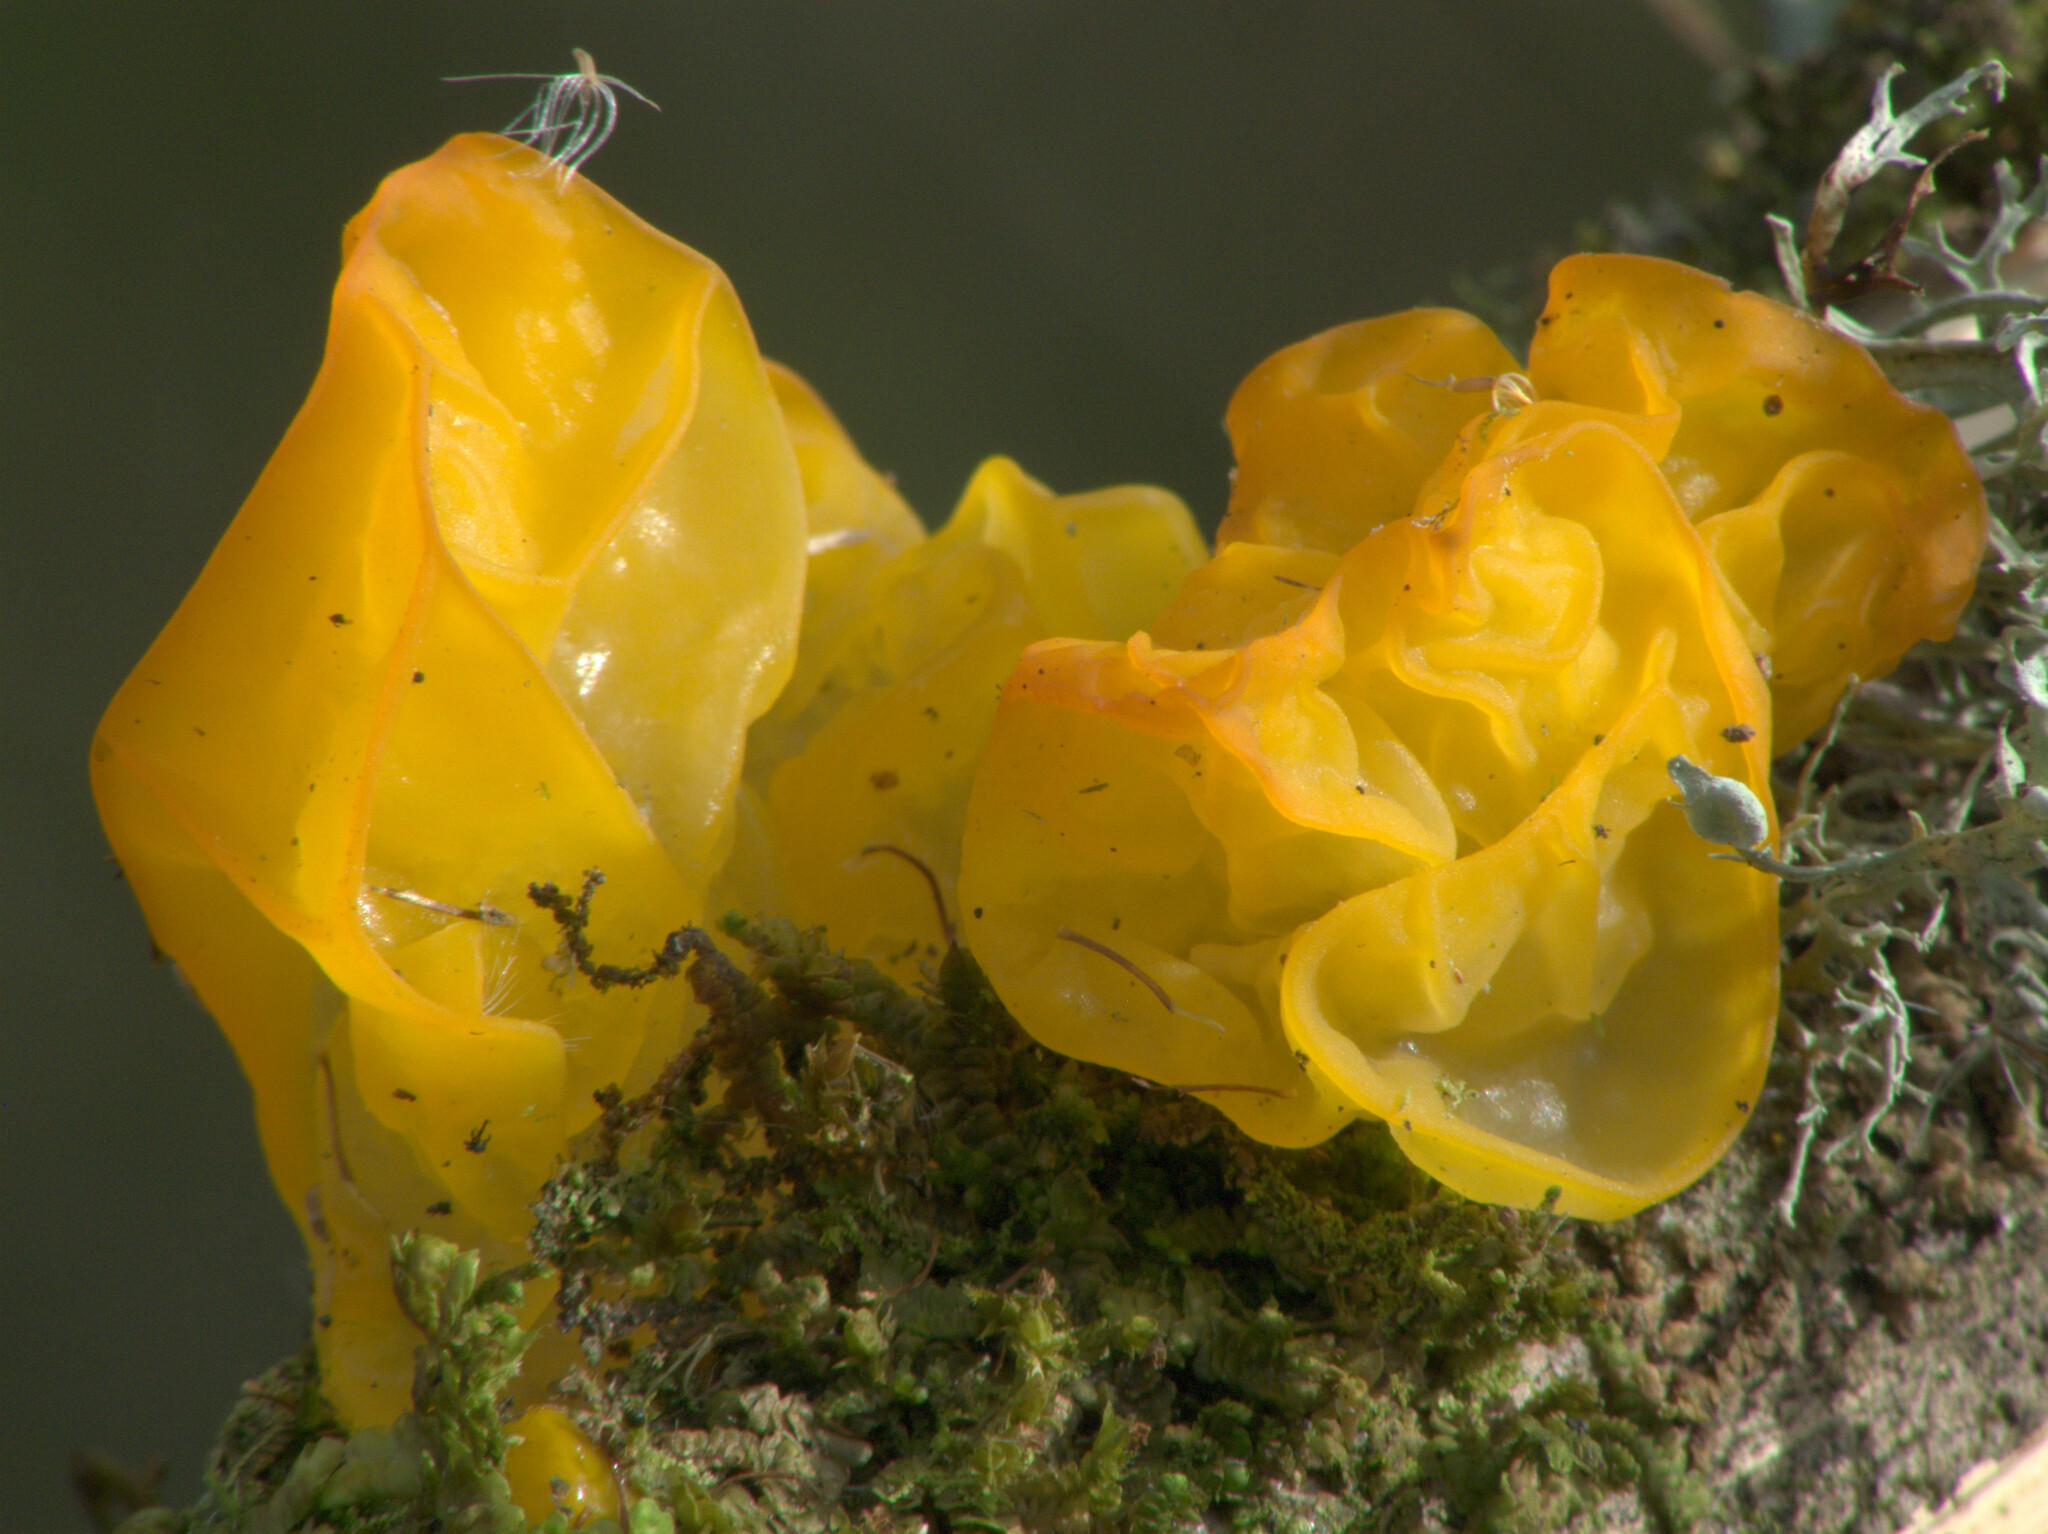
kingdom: Fungi
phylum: Basidiomycota
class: Tremellomycetes
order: Tremellales
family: Tremellaceae
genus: Tremella
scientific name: Tremella mesenterica
